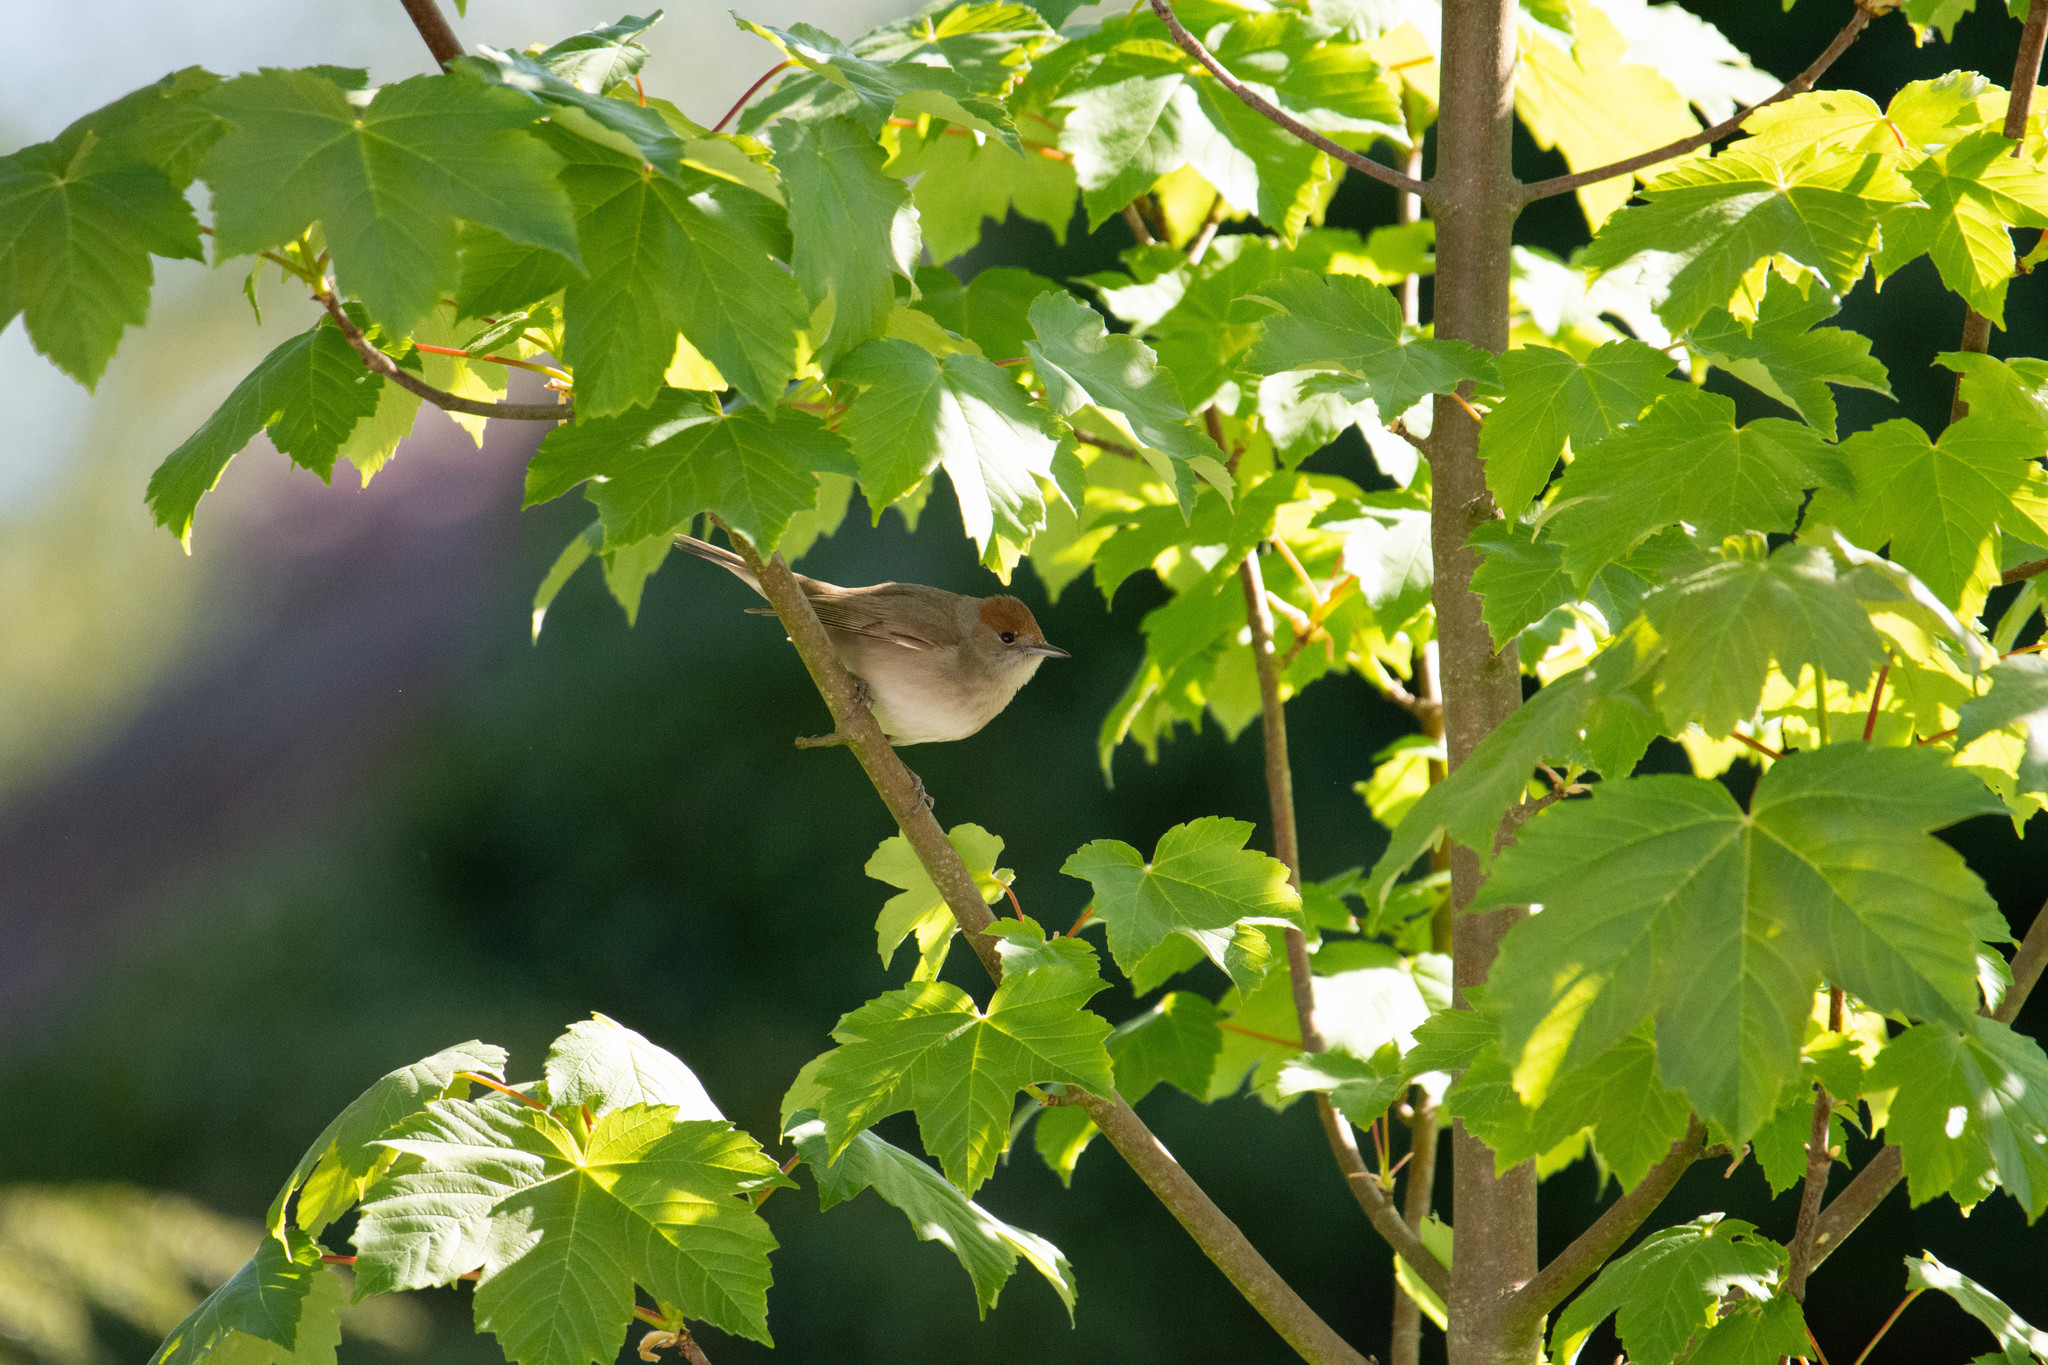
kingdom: Animalia
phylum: Chordata
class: Aves
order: Passeriformes
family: Sylviidae
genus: Sylvia
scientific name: Sylvia atricapilla
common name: Eurasian blackcap
